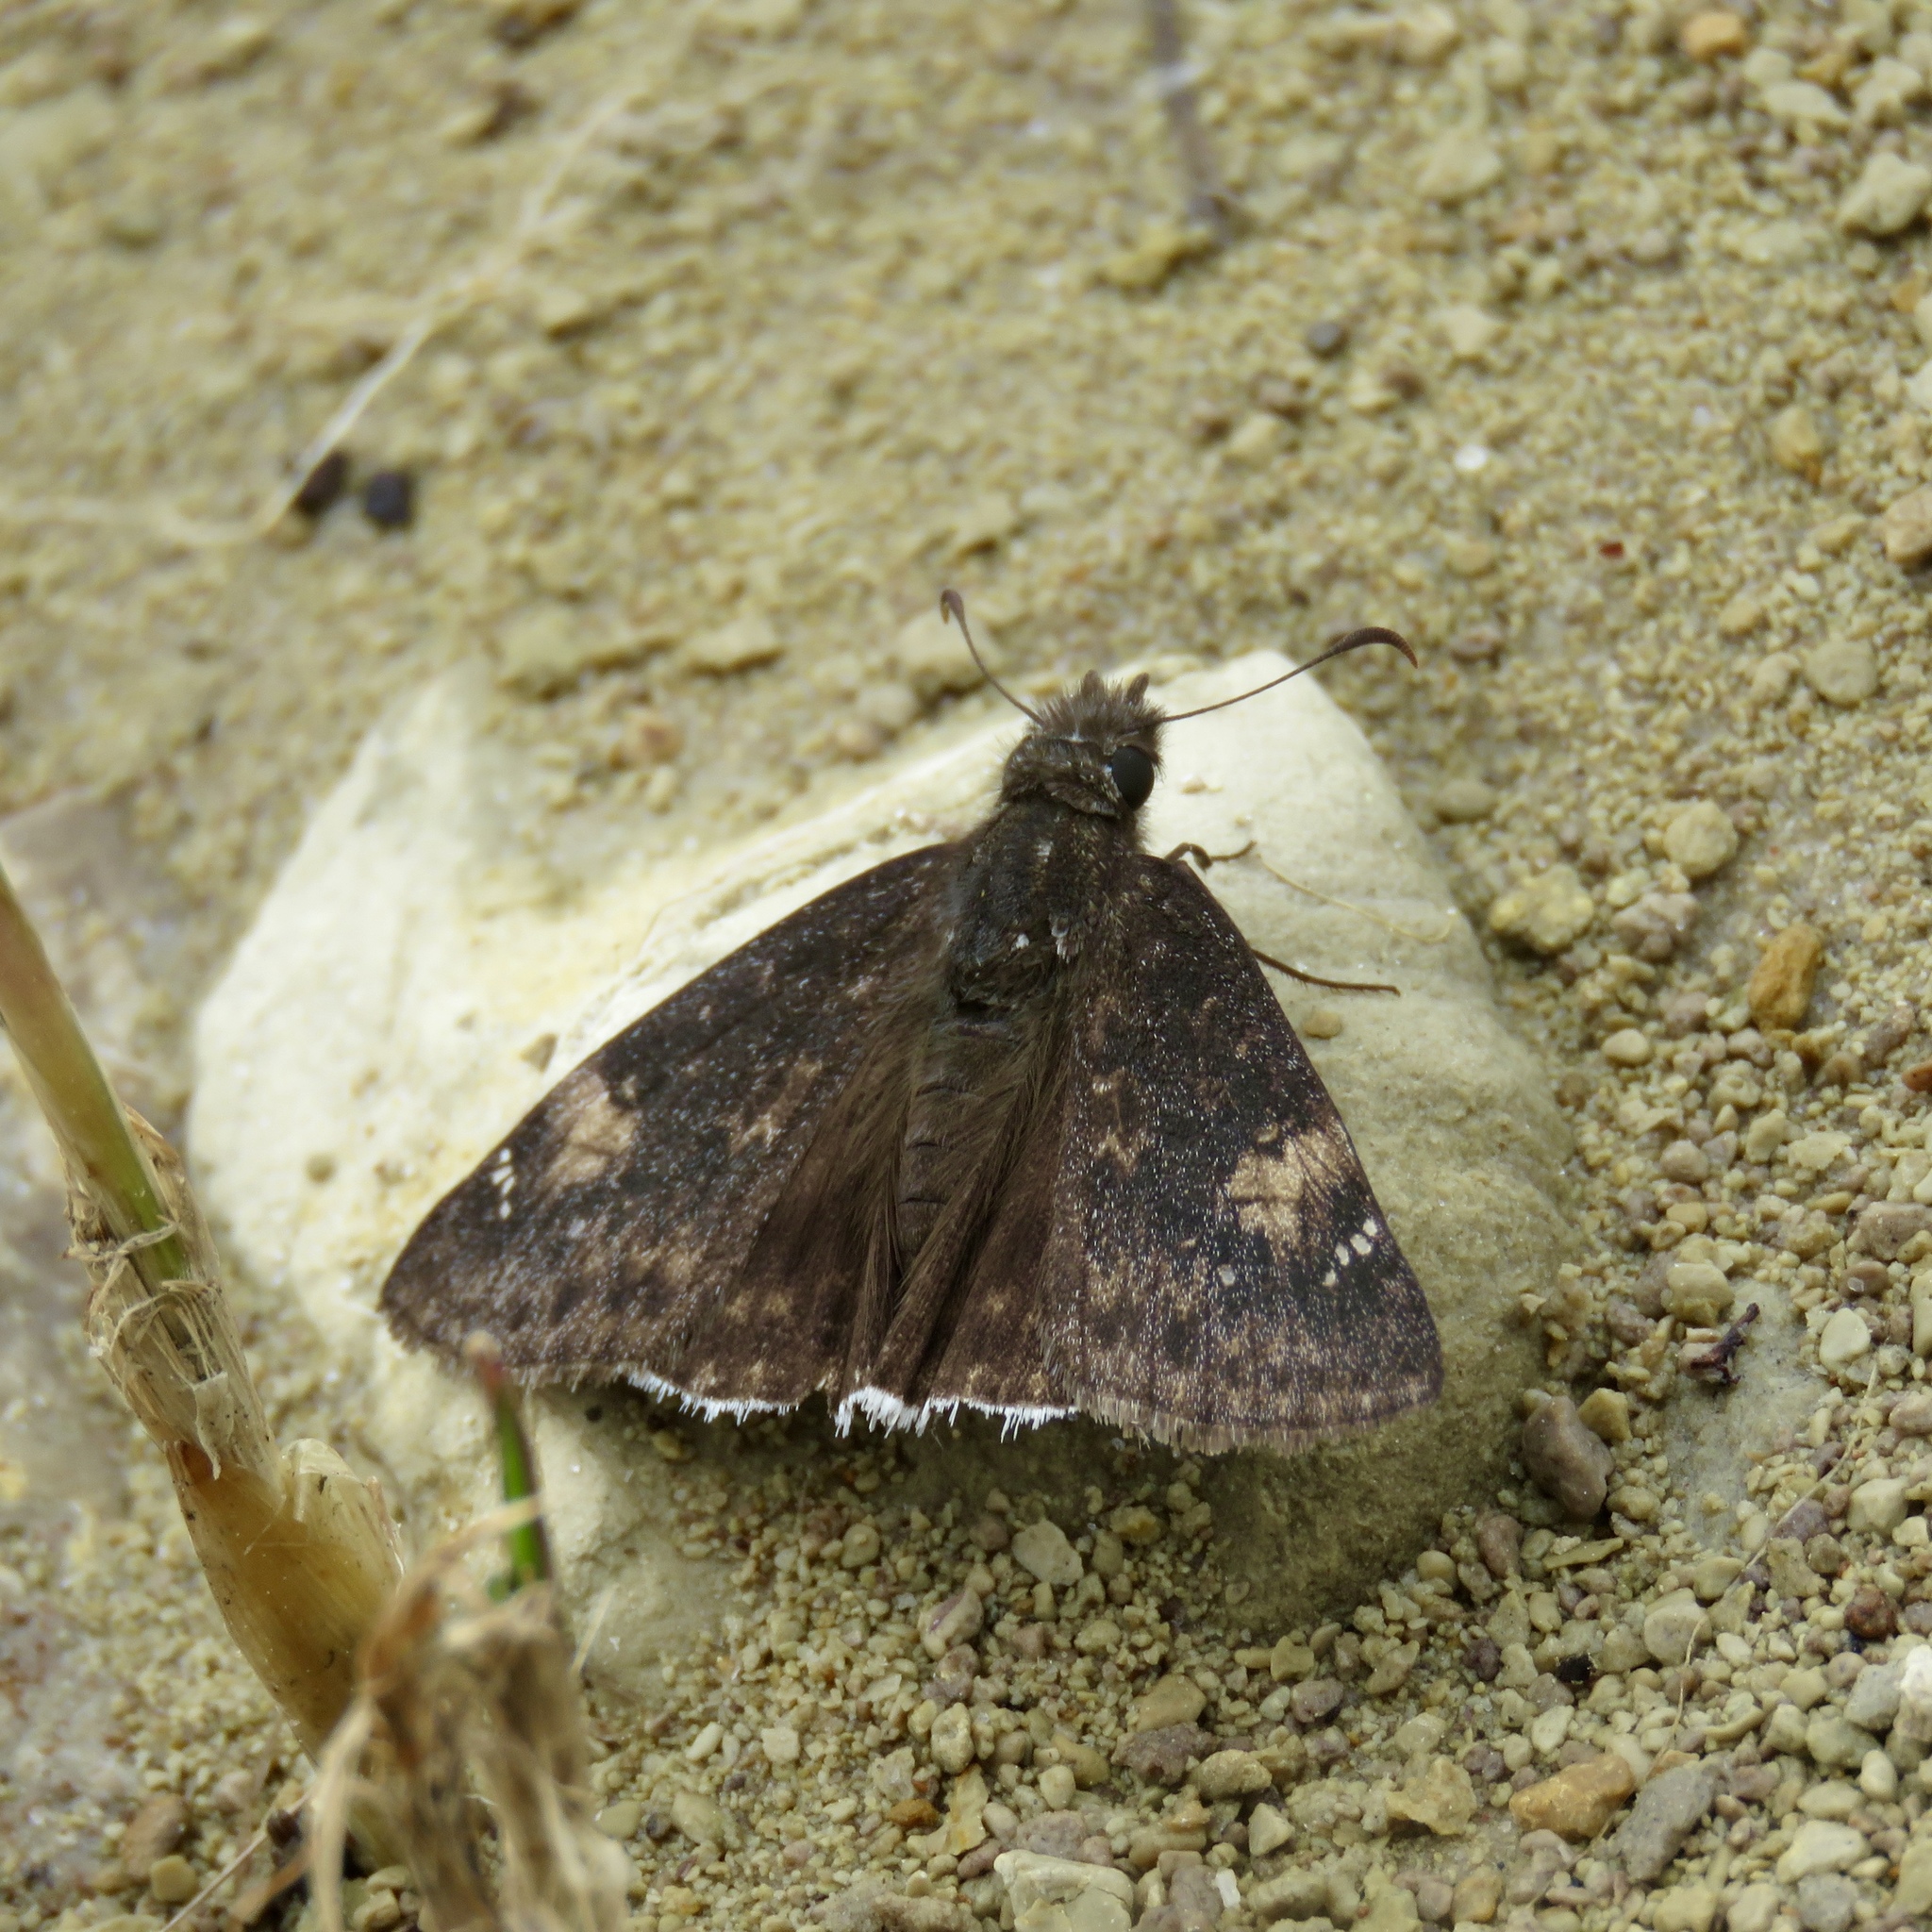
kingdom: Animalia
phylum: Arthropoda
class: Insecta
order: Lepidoptera
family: Hesperiidae
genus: Erynnis
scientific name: Erynnis funeralis
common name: Funereal duskywing
